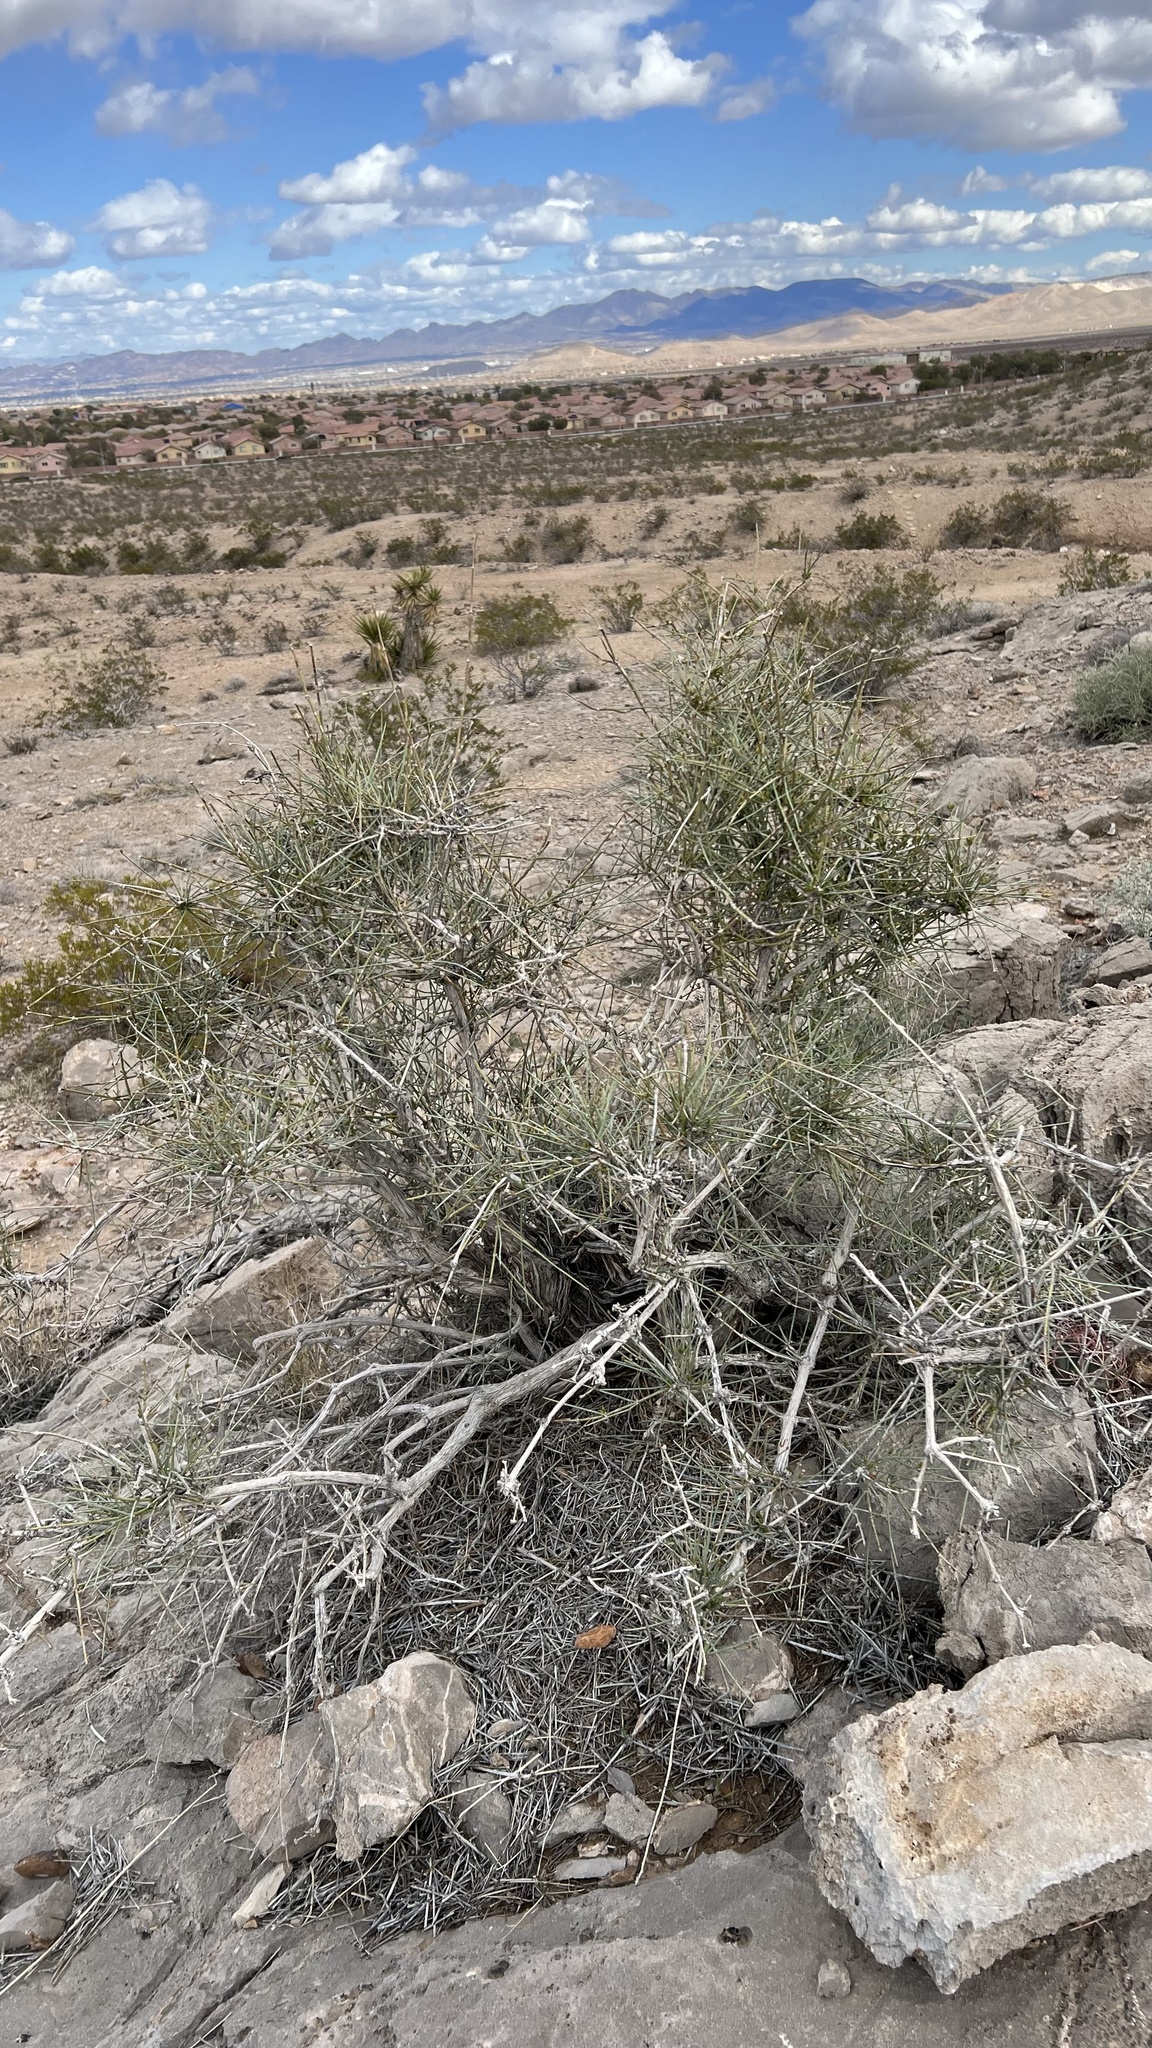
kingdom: Plantae
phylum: Tracheophyta
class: Gnetopsida
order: Ephedrales
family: Ephedraceae
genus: Ephedra
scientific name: Ephedra nevadensis
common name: Gray ephedra
